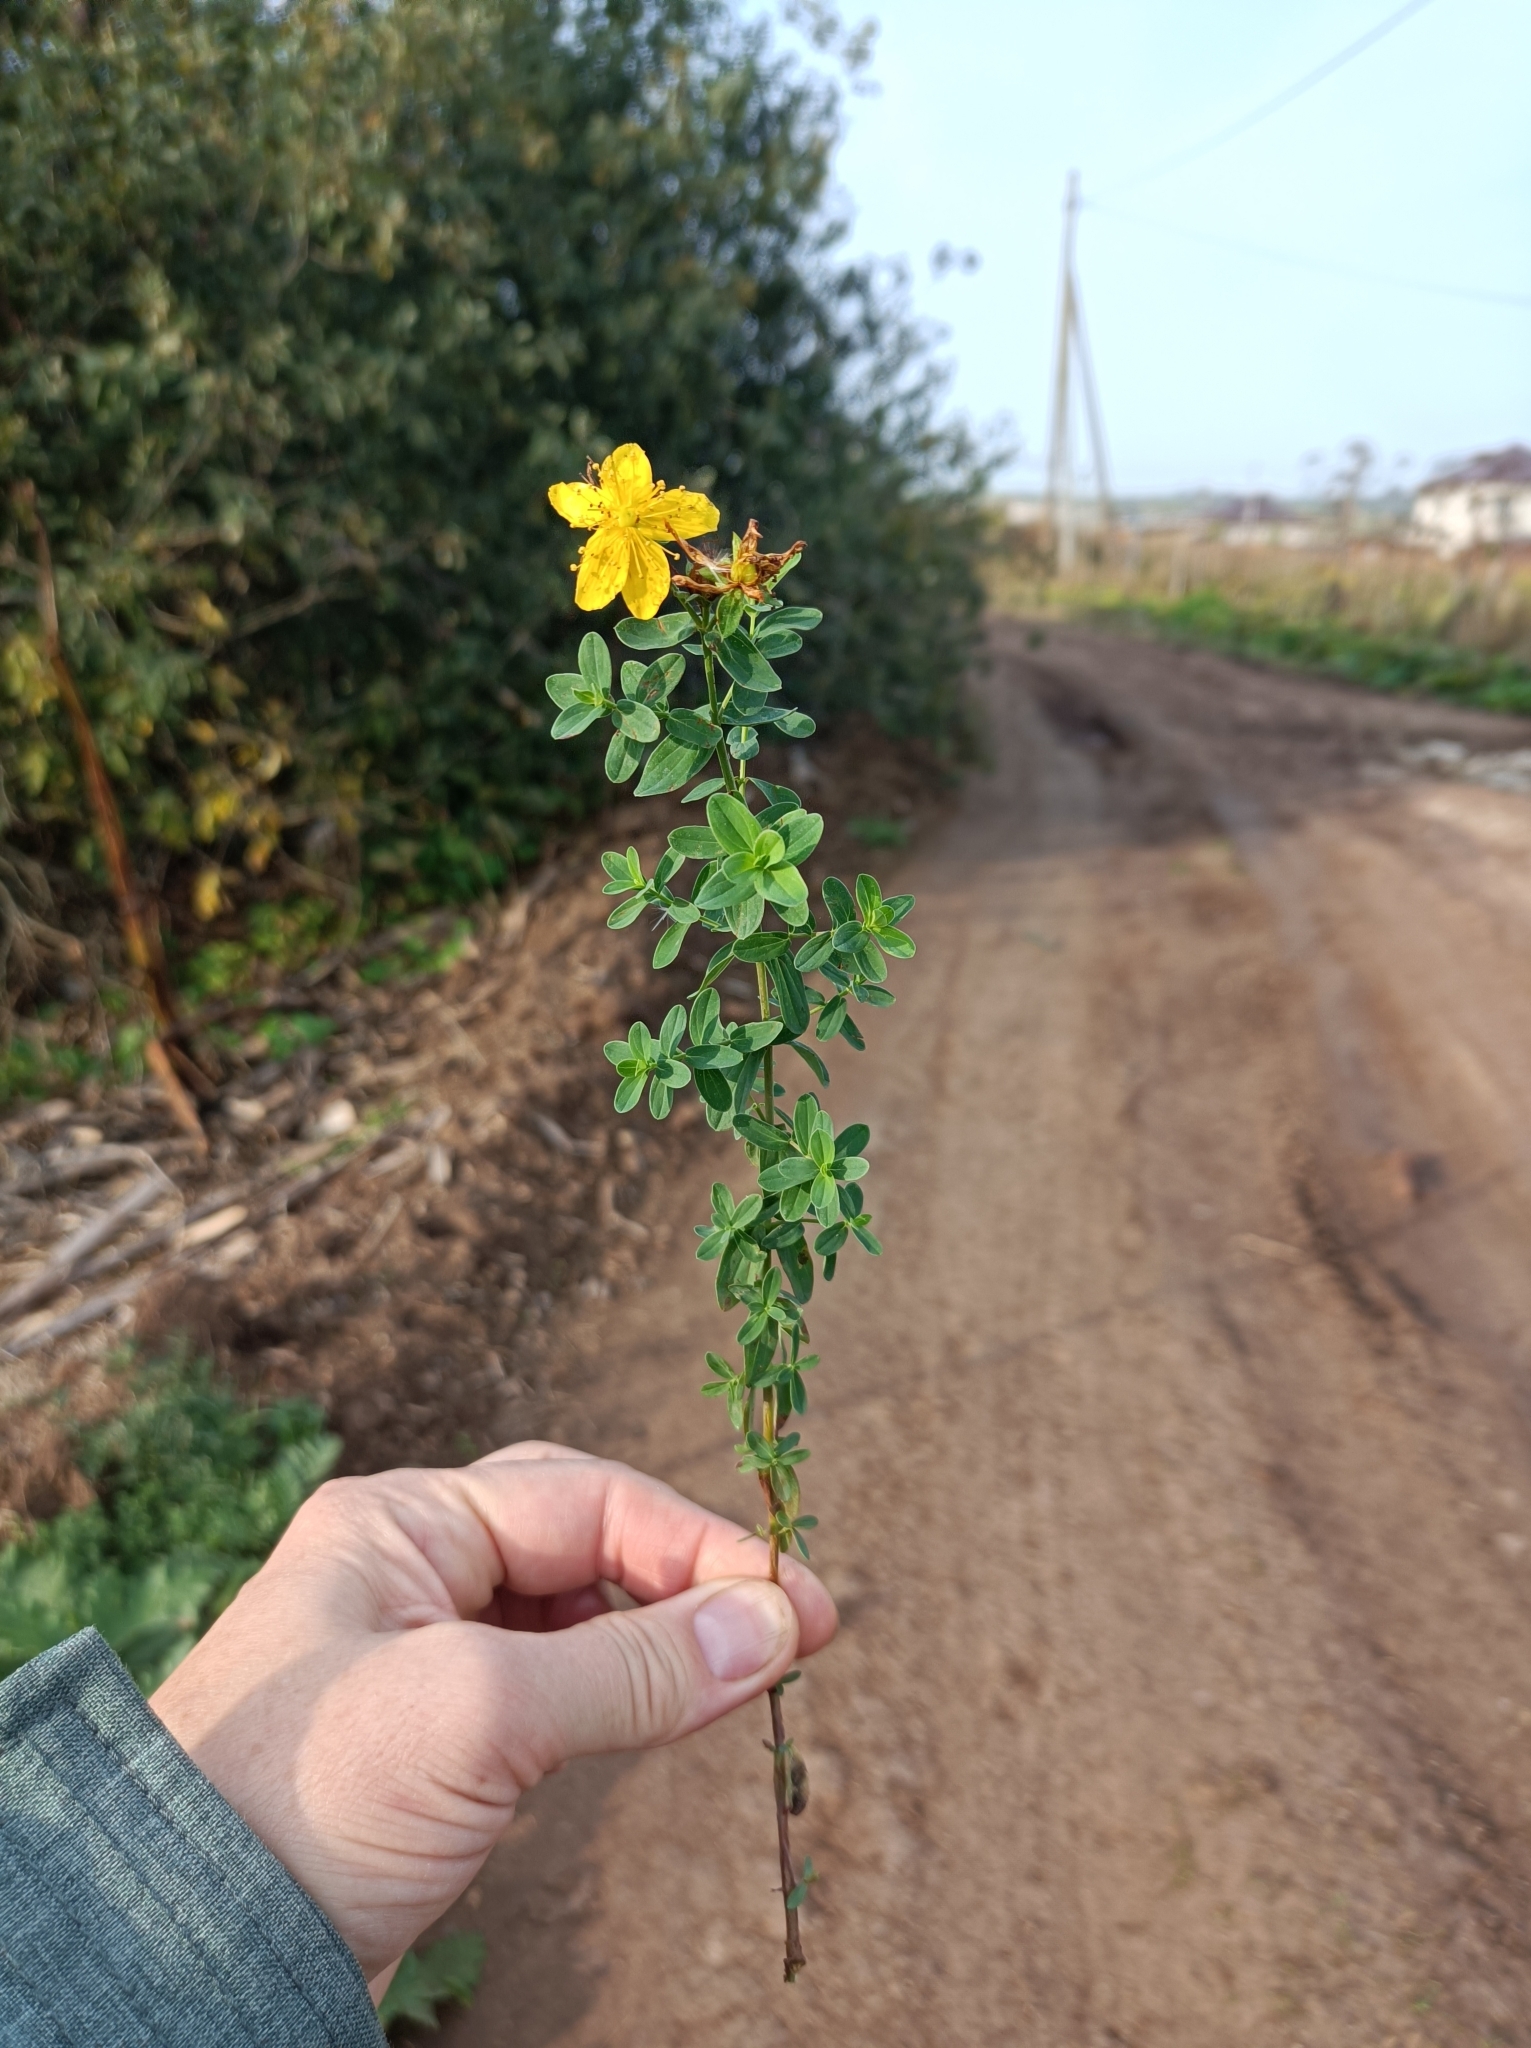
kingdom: Plantae
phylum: Tracheophyta
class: Magnoliopsida
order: Malpighiales
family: Hypericaceae
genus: Hypericum
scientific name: Hypericum perforatum
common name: Common st. johnswort
